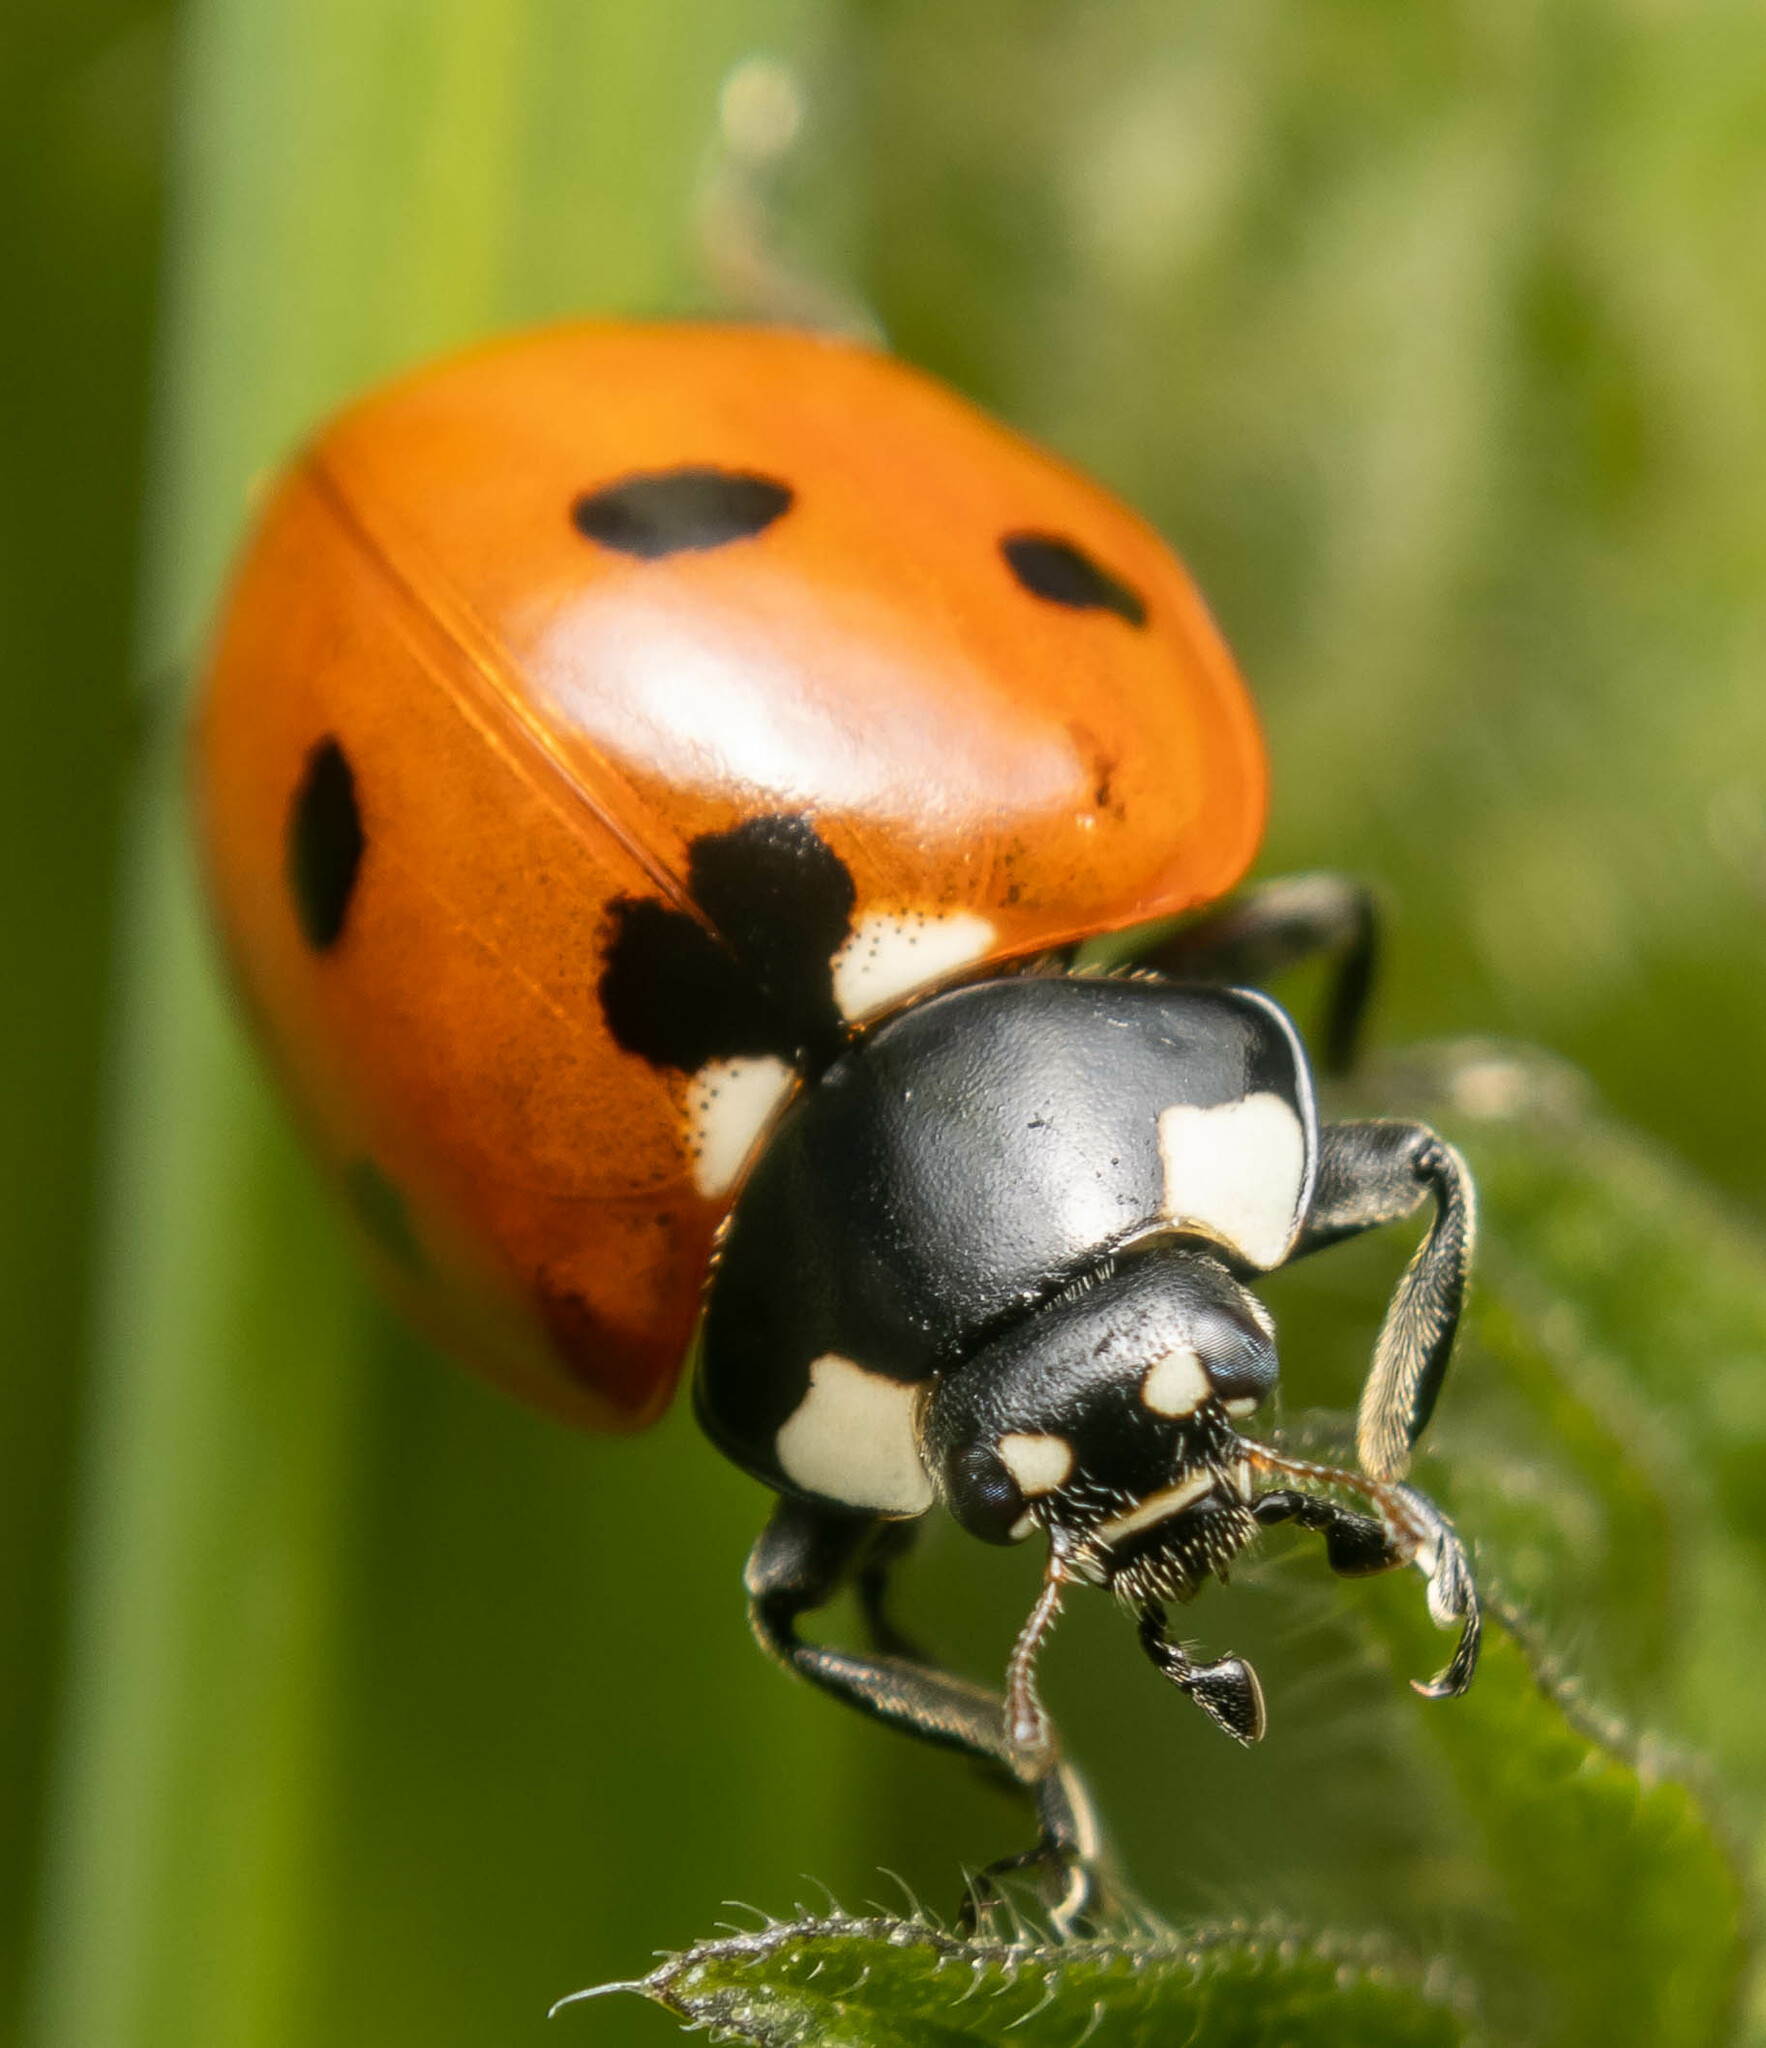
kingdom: Animalia
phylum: Arthropoda
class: Insecta
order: Coleoptera
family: Coccinellidae
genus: Coccinella
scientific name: Coccinella septempunctata
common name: Sevenspotted lady beetle
